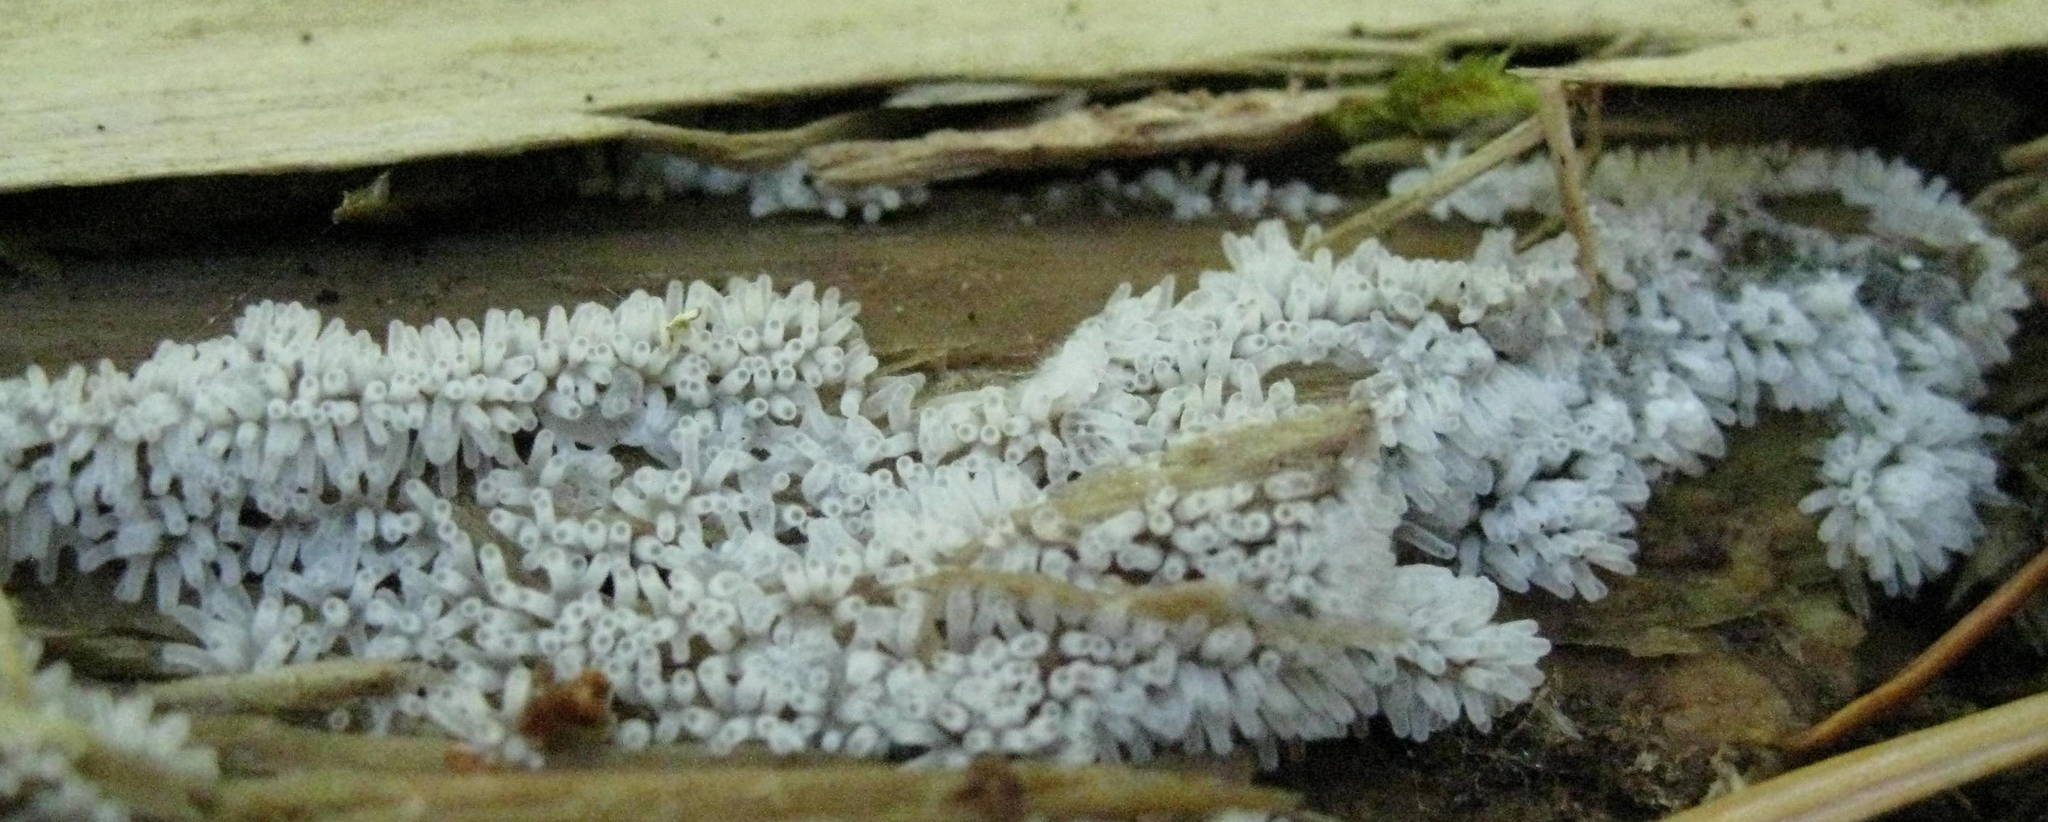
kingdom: Protozoa
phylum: Mycetozoa
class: Protosteliomycetes
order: Ceratiomyxales
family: Ceratiomyxaceae
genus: Ceratiomyxa
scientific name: Ceratiomyxa fruticulosa
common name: Honeycomb coral slime mold
